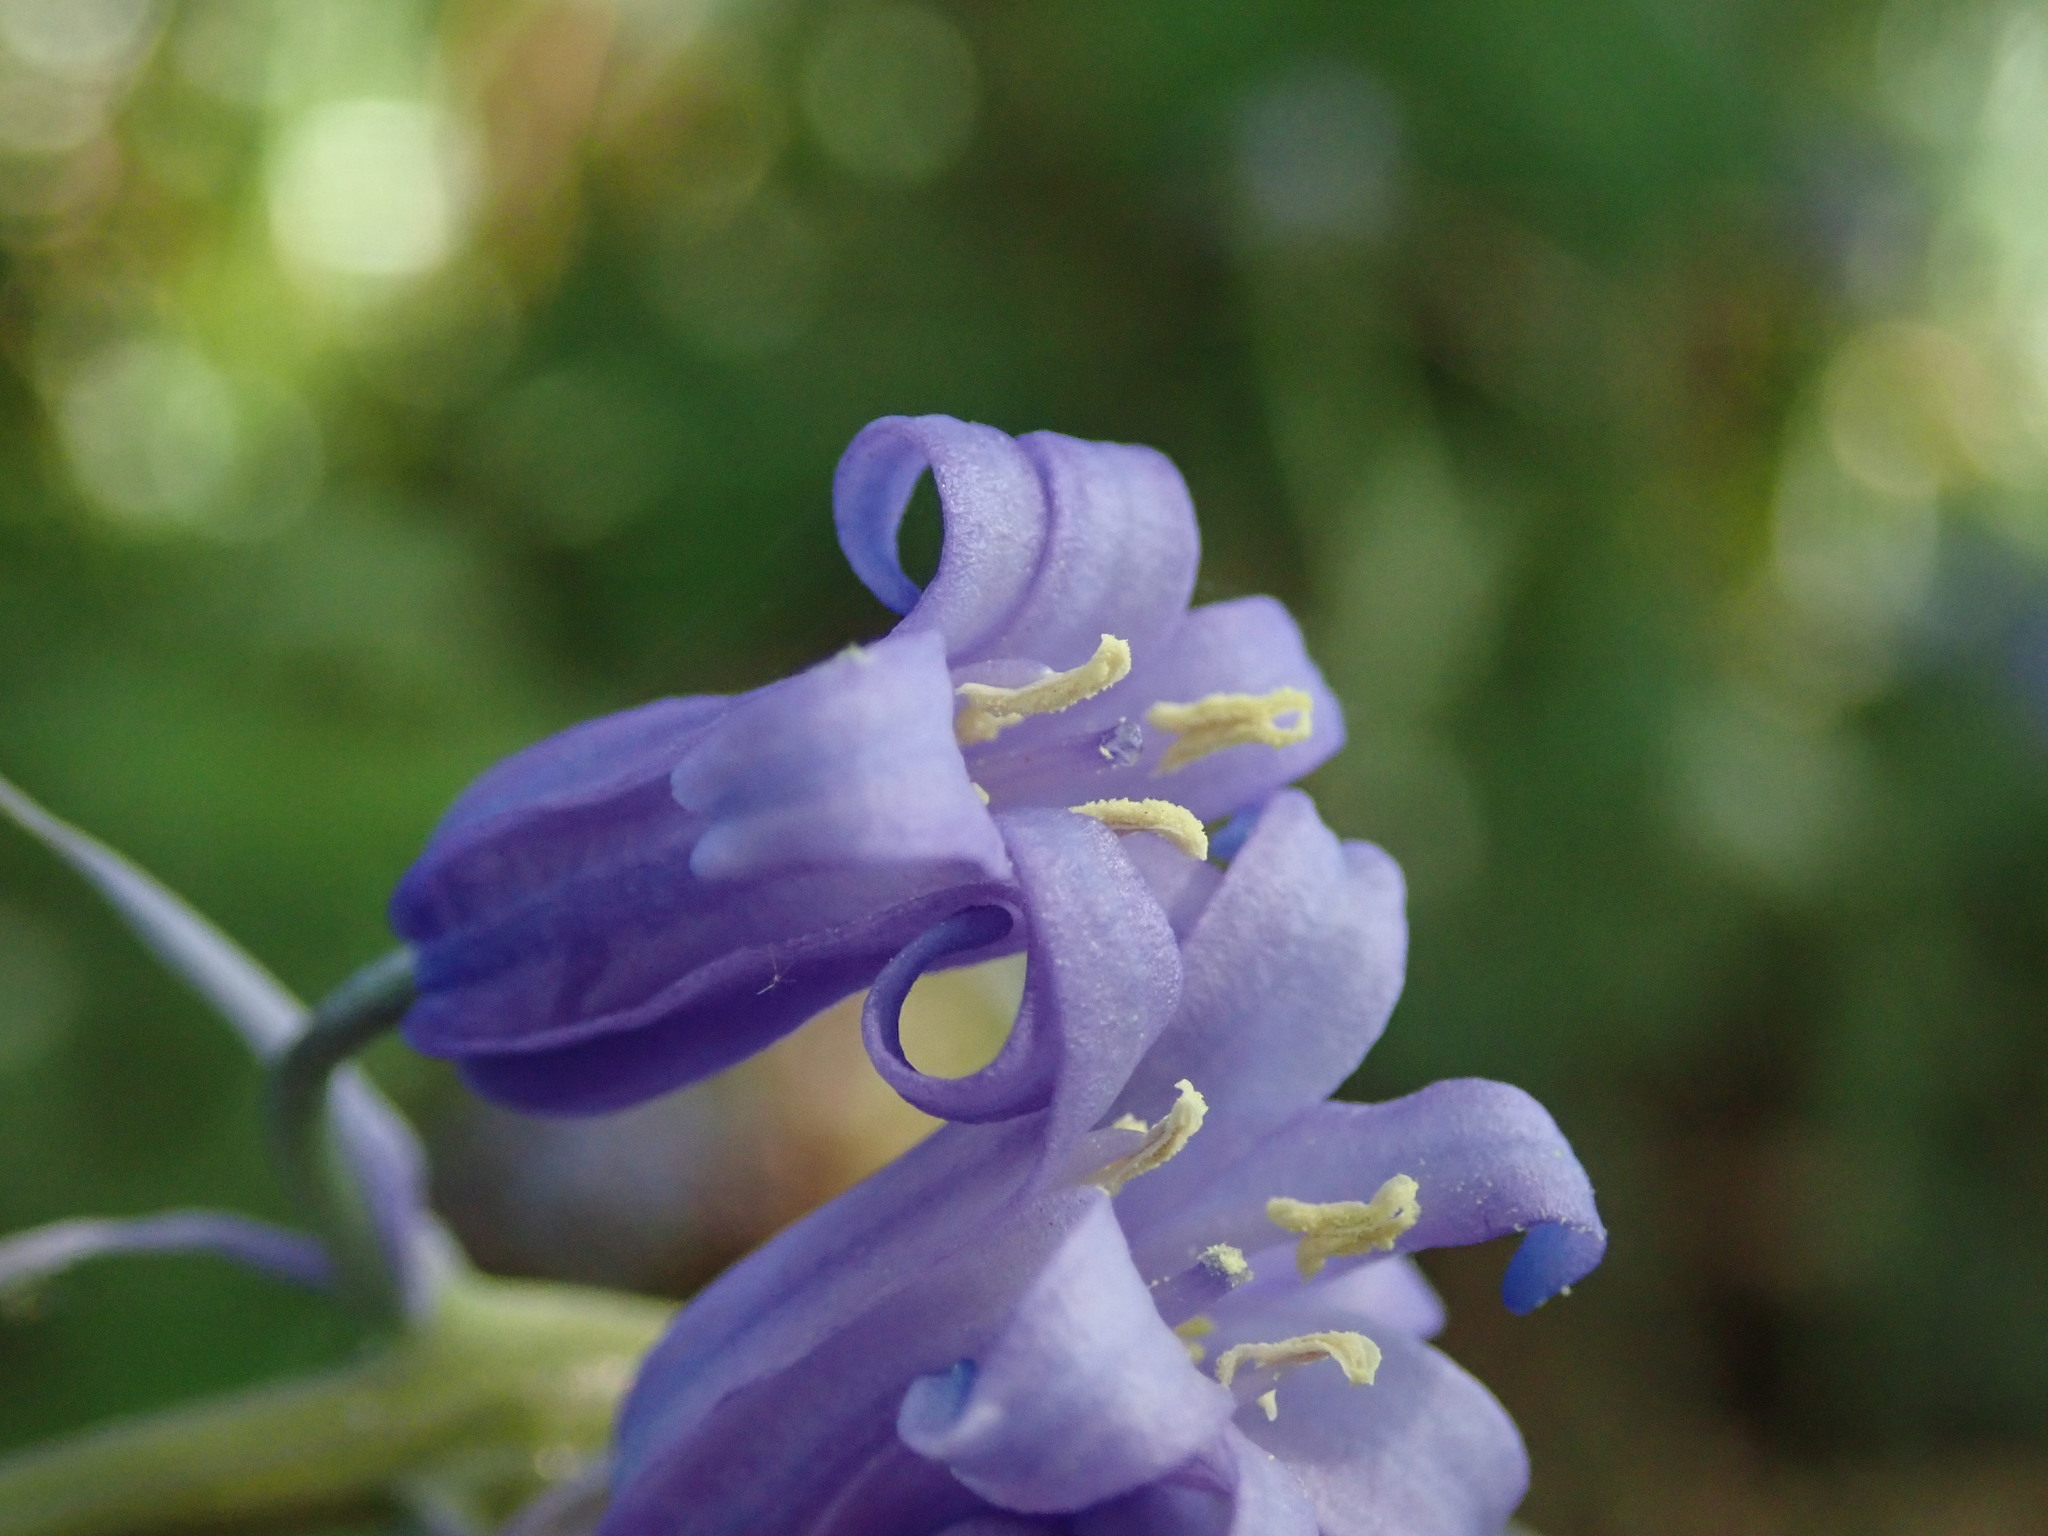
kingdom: Plantae
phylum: Tracheophyta
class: Liliopsida
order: Asparagales
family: Asparagaceae
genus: Hyacinthoides
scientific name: Hyacinthoides non-scripta
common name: Bluebell
